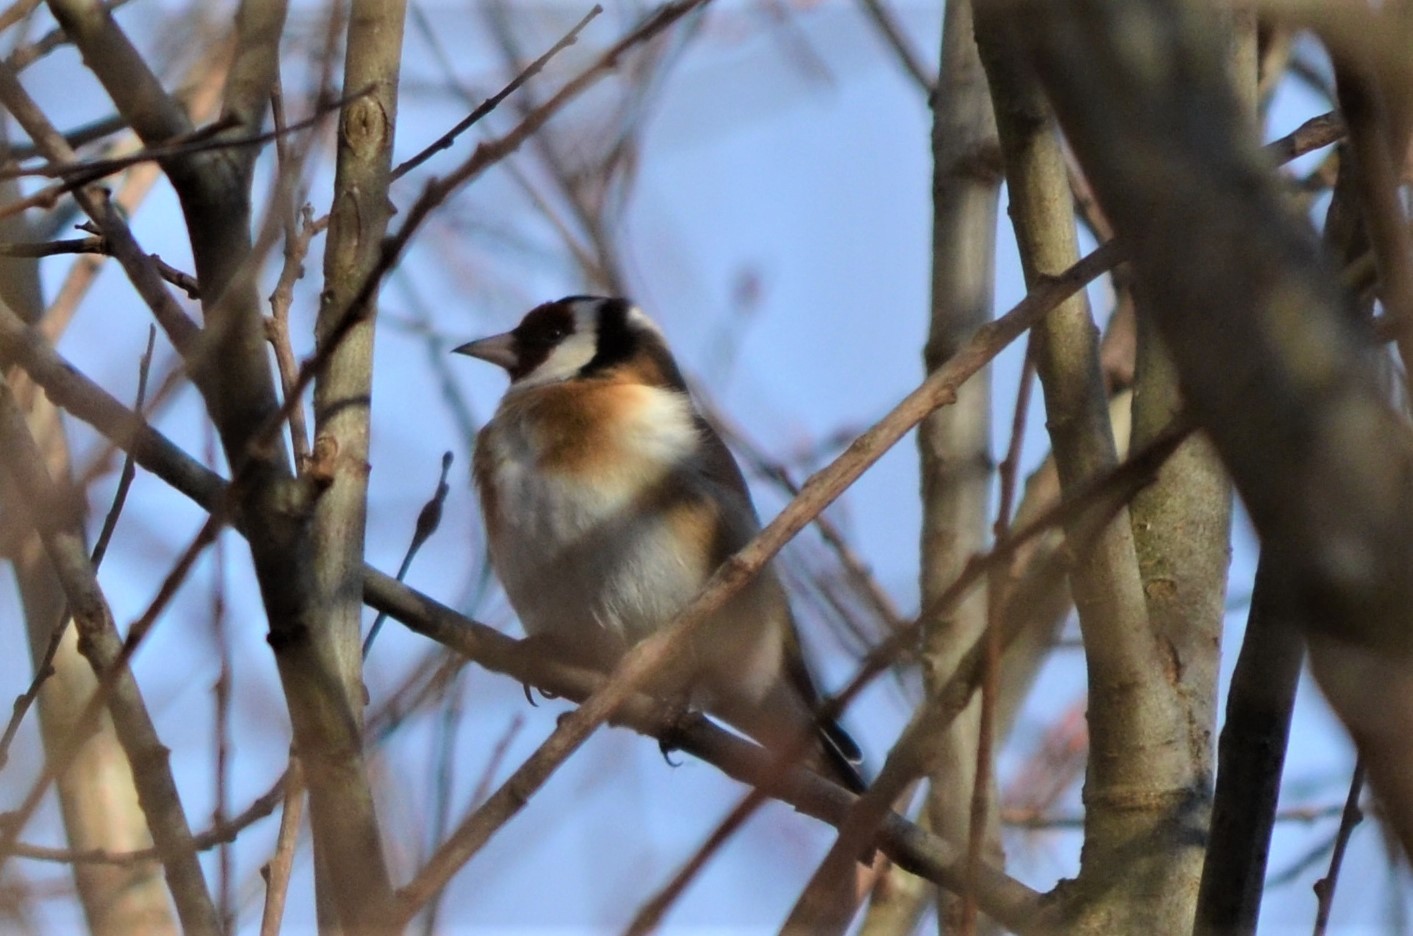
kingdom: Animalia
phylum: Chordata
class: Aves
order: Passeriformes
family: Fringillidae
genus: Carduelis
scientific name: Carduelis carduelis
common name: European goldfinch
